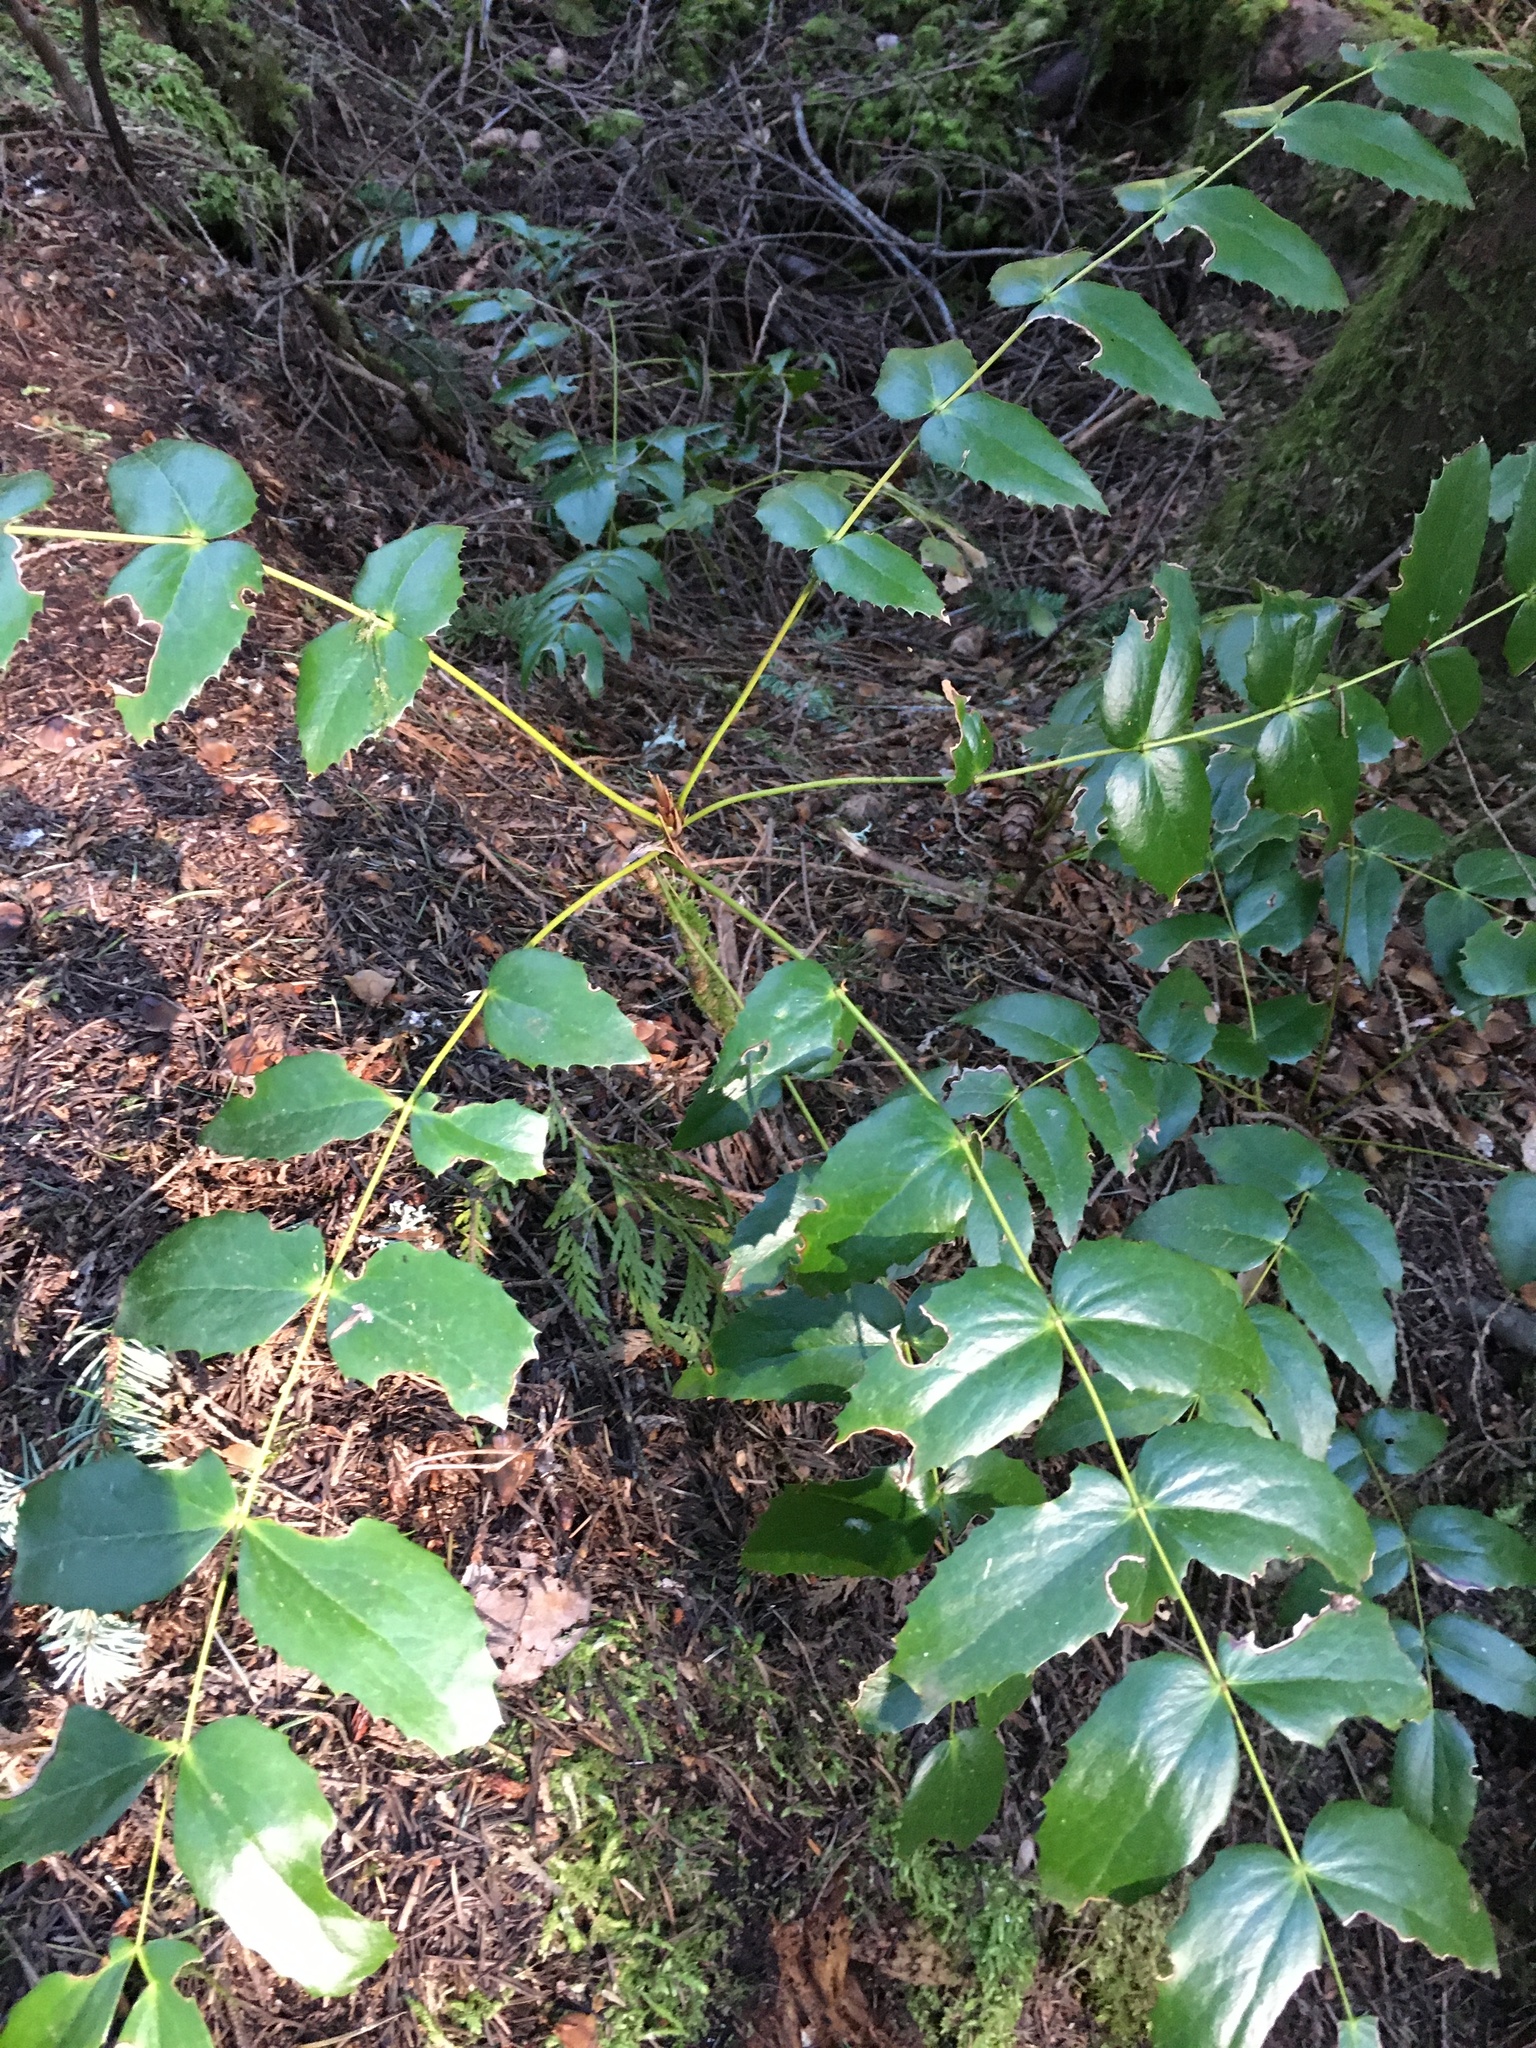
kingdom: Plantae
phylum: Tracheophyta
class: Magnoliopsida
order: Ranunculales
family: Berberidaceae
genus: Mahonia
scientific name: Mahonia nervosa
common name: Cascade oregon-grape
